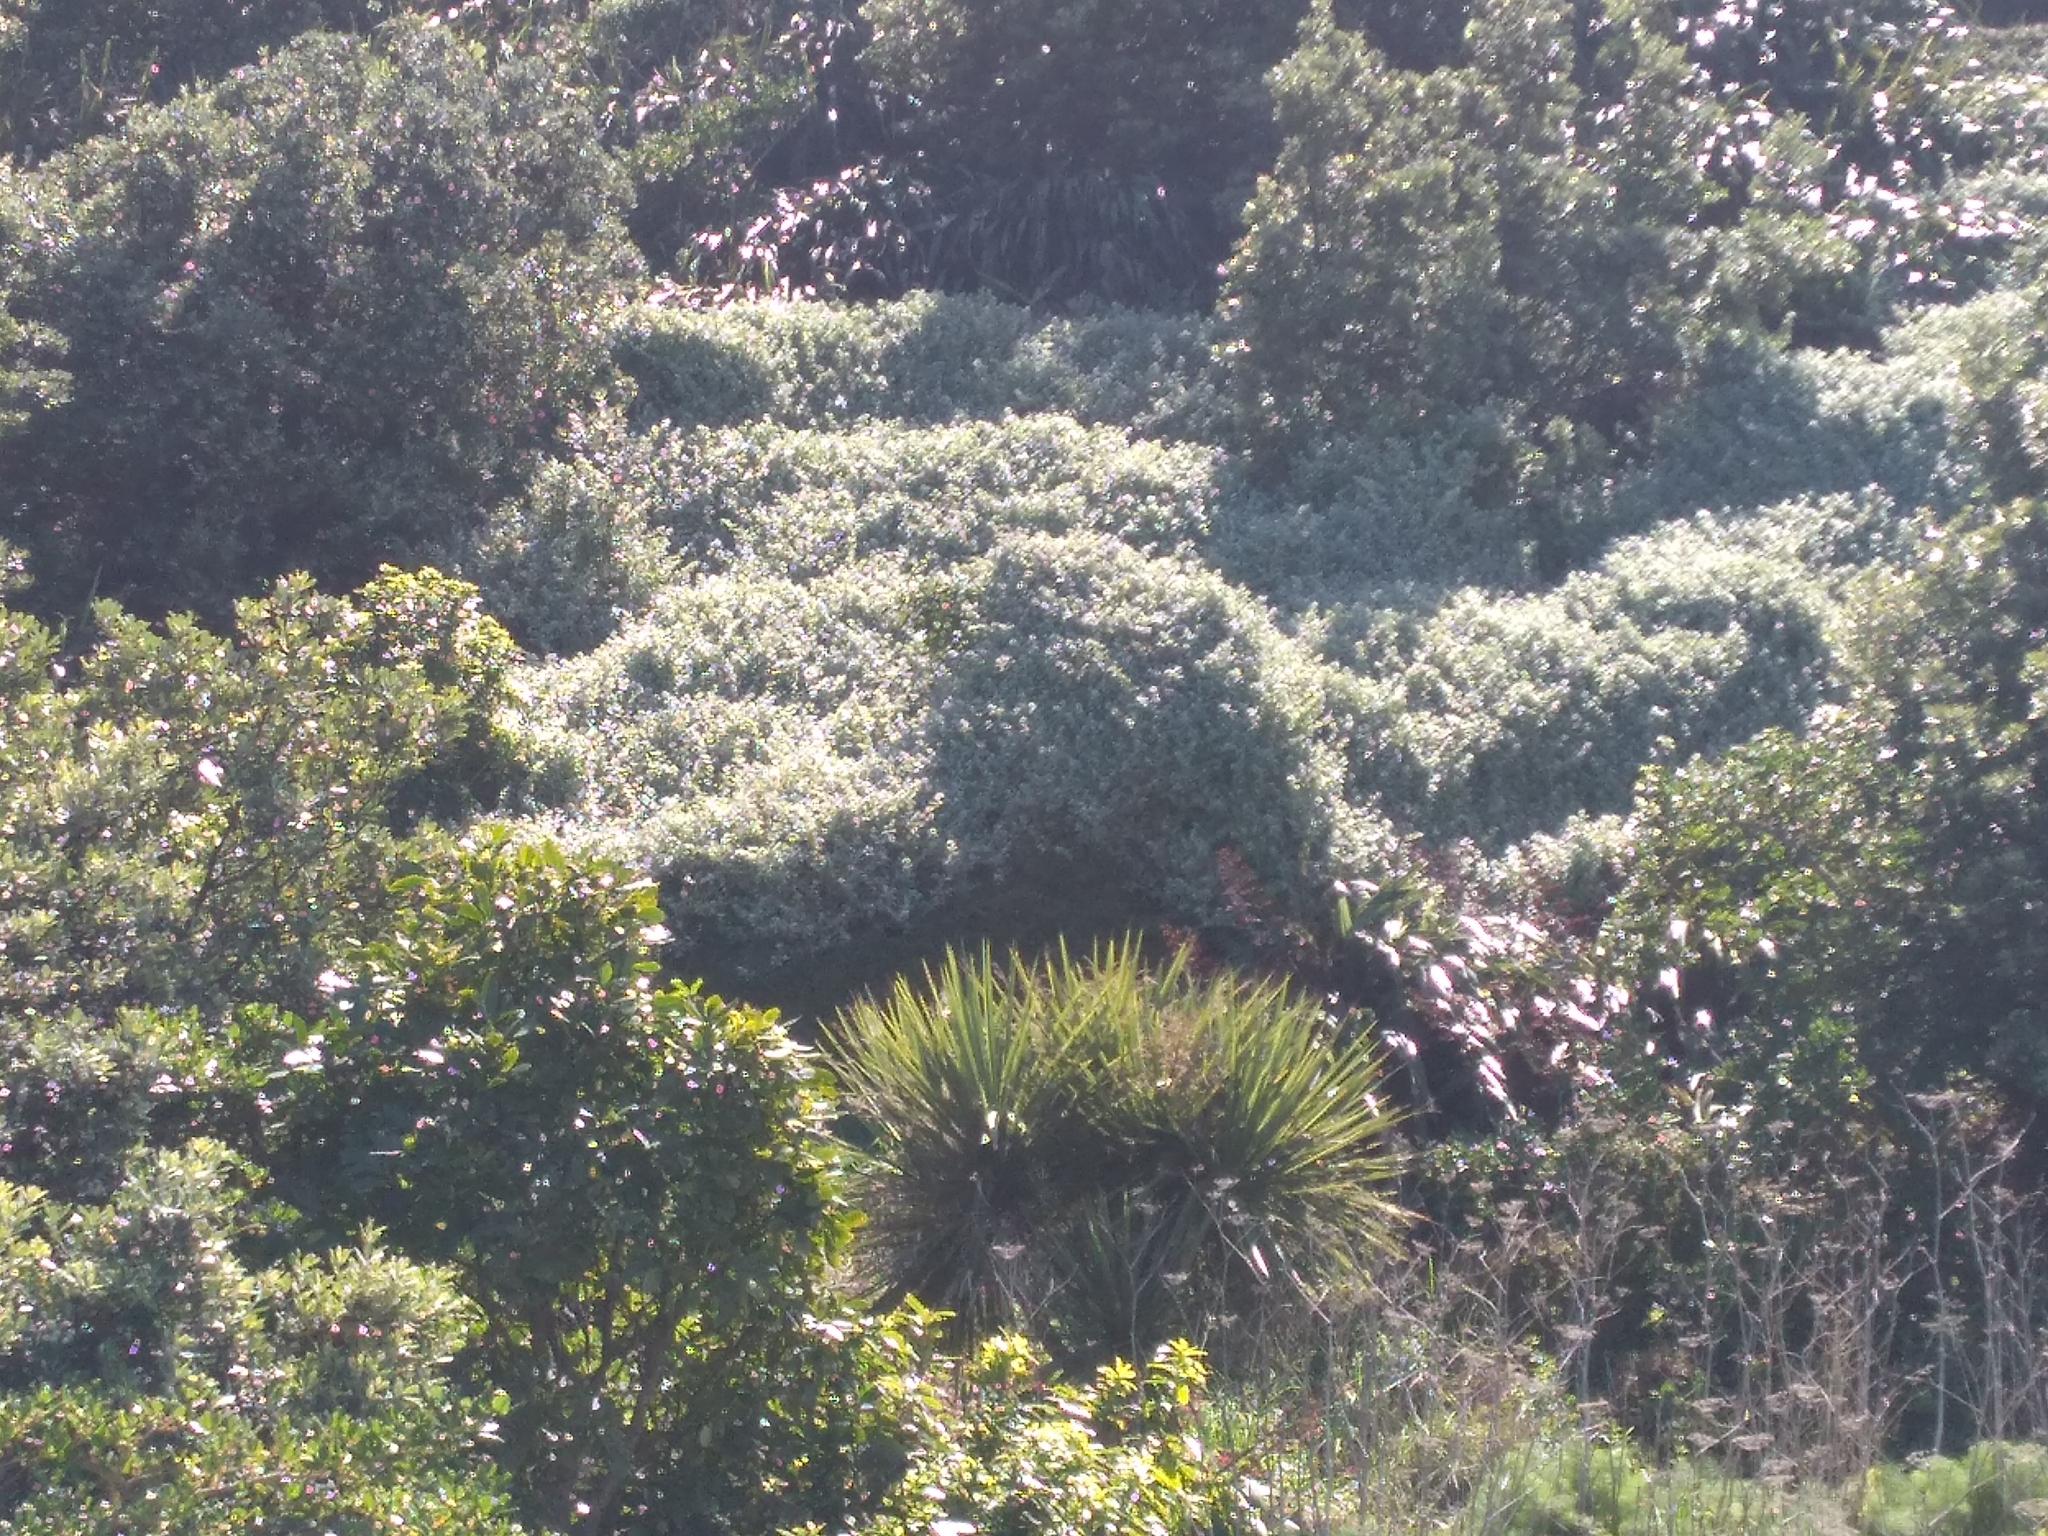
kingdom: Plantae
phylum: Tracheophyta
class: Magnoliopsida
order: Asterales
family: Asteraceae
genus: Helichrysum
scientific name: Helichrysum petiolare
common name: Licorice-plant
